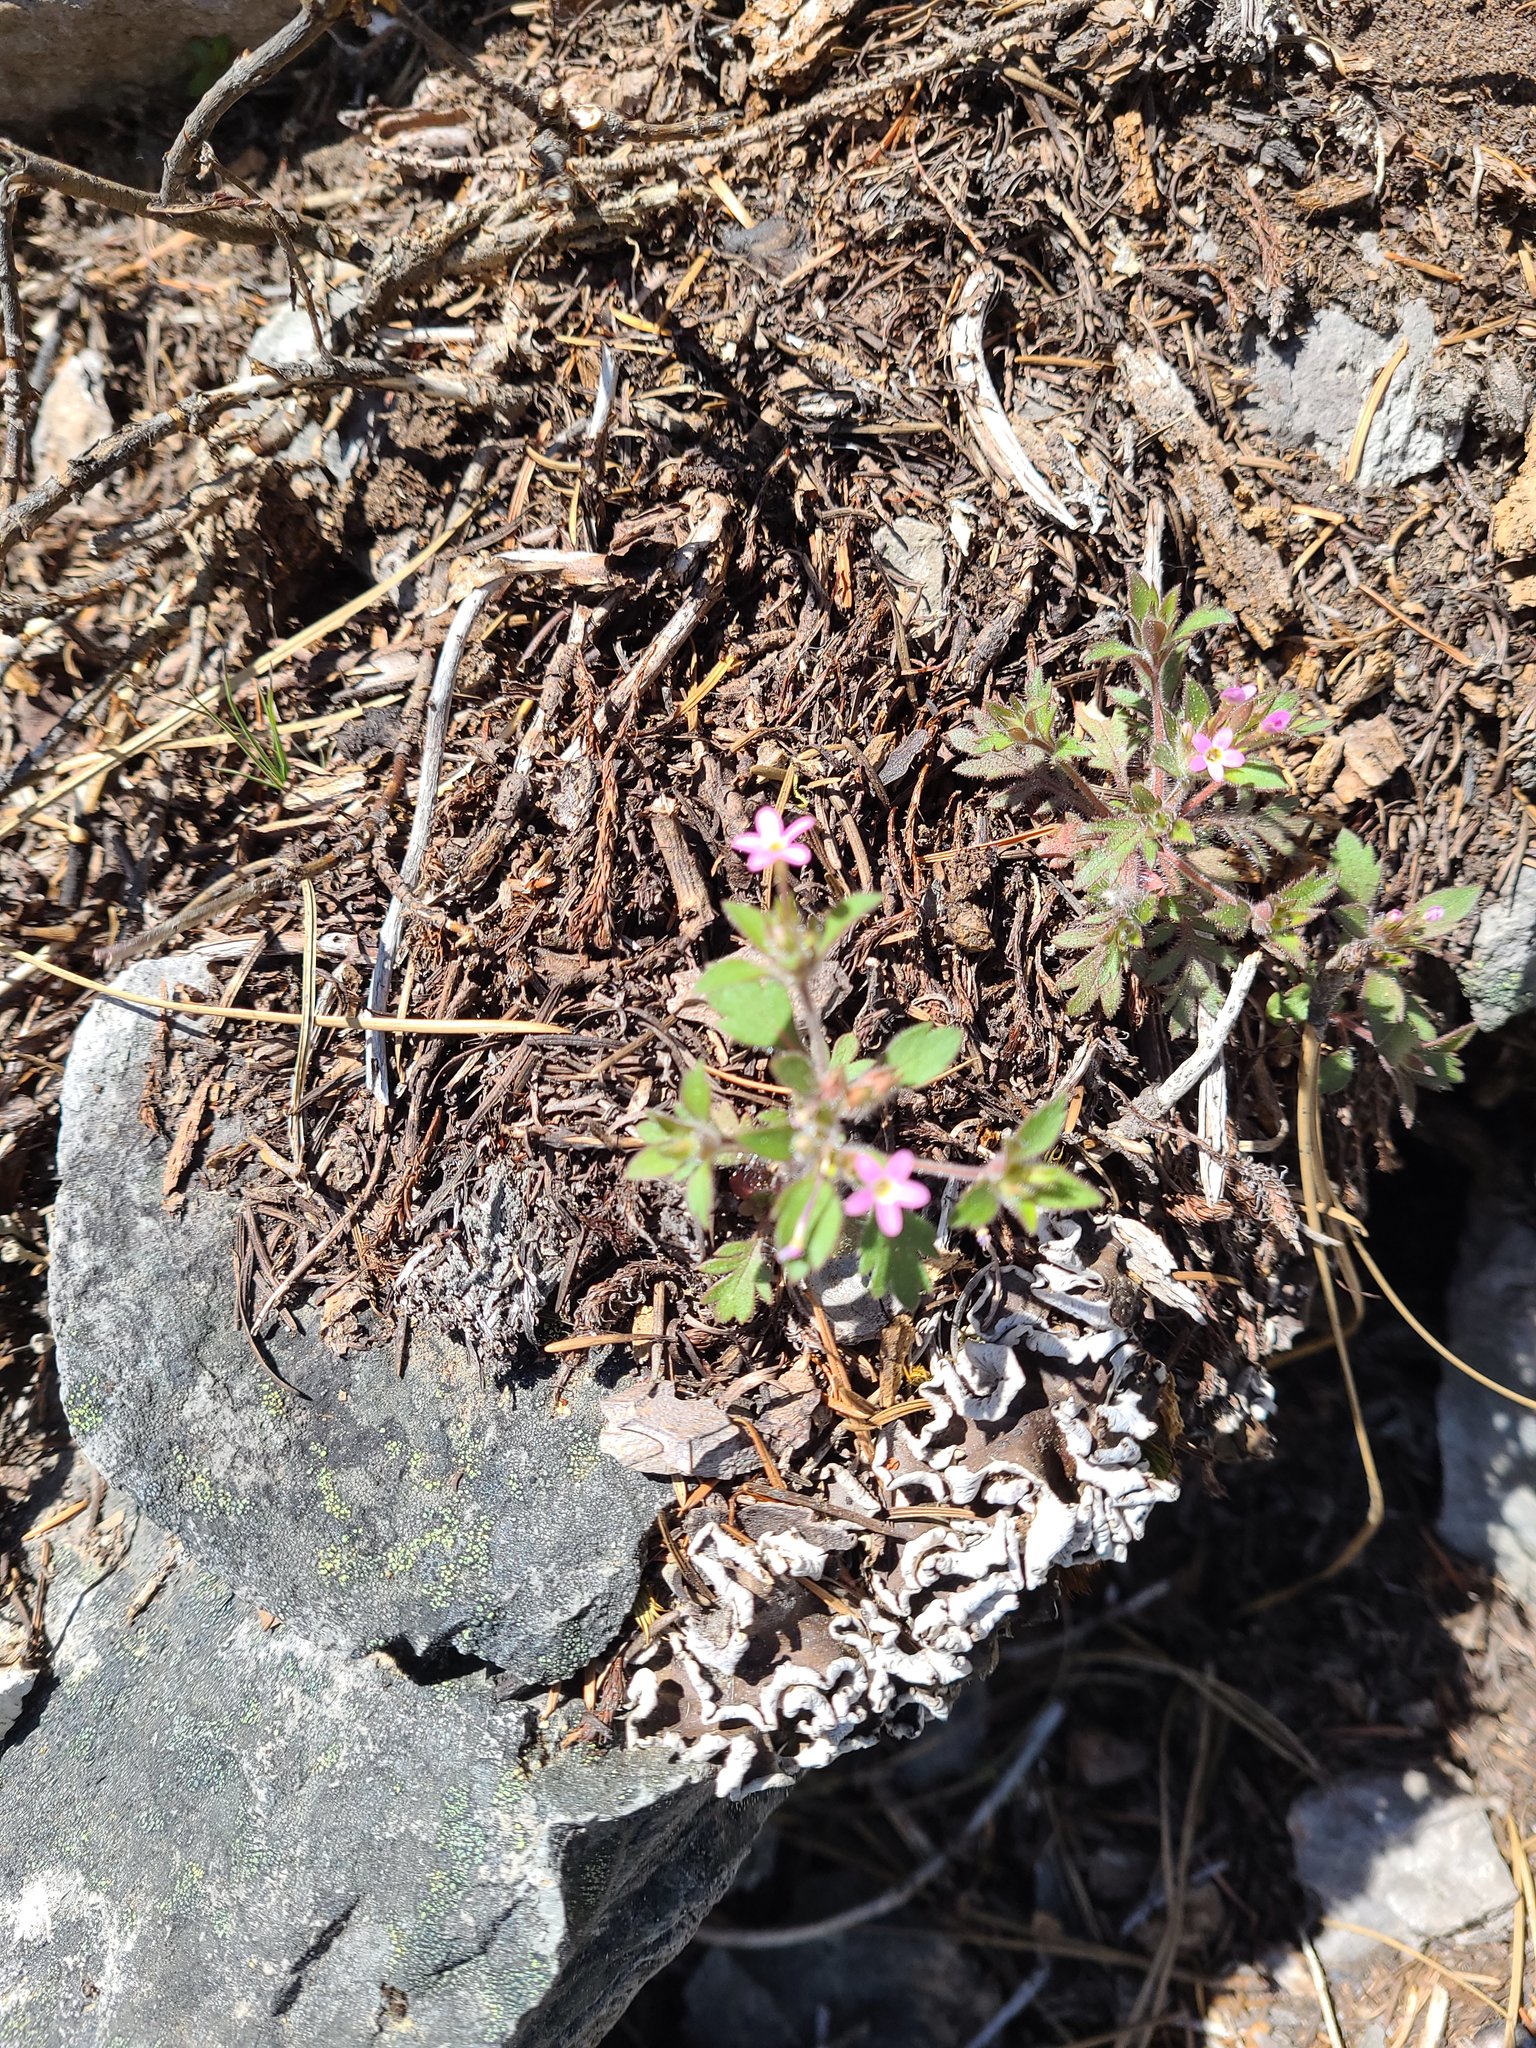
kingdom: Plantae
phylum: Tracheophyta
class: Magnoliopsida
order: Ericales
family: Polemoniaceae
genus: Collomia
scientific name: Collomia heterophylla
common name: Variable-leaved collomia
